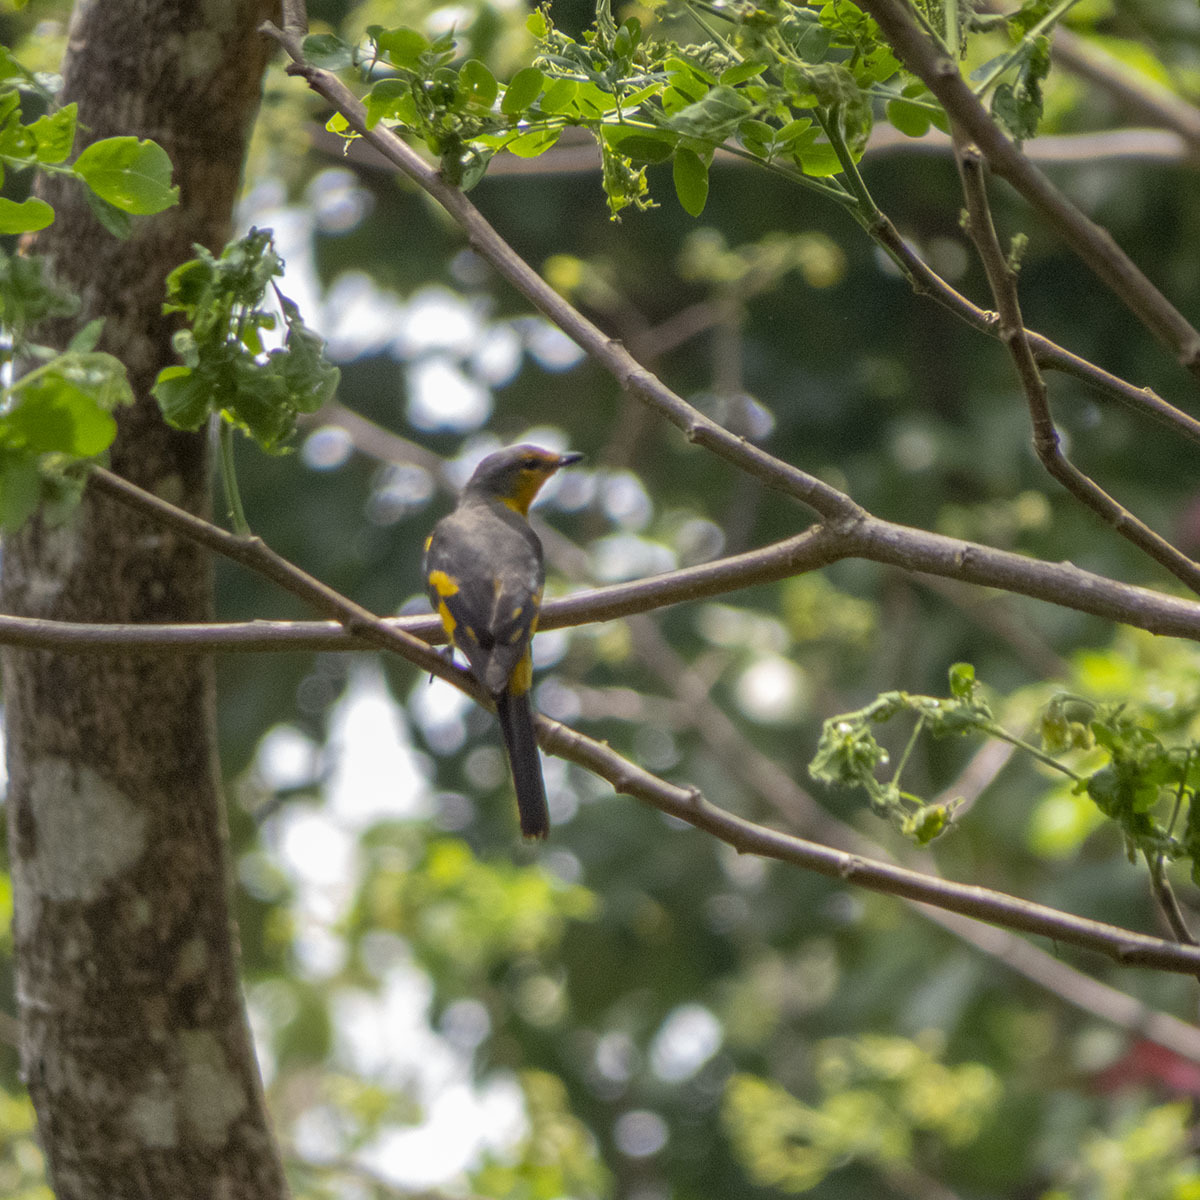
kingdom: Animalia
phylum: Chordata
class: Aves
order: Passeriformes
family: Campephagidae
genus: Pericrocotus
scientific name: Pericrocotus speciosus
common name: Scarlet minivet
